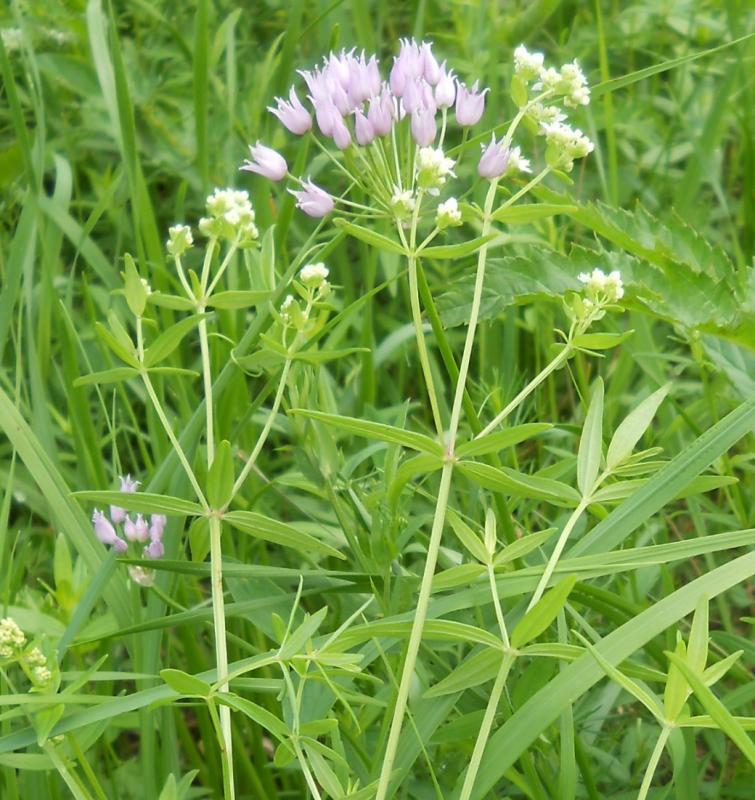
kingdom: Plantae
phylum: Tracheophyta
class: Liliopsida
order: Asparagales
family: Amaryllidaceae
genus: Allium
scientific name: Allium angulosum
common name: Mouse garlic
